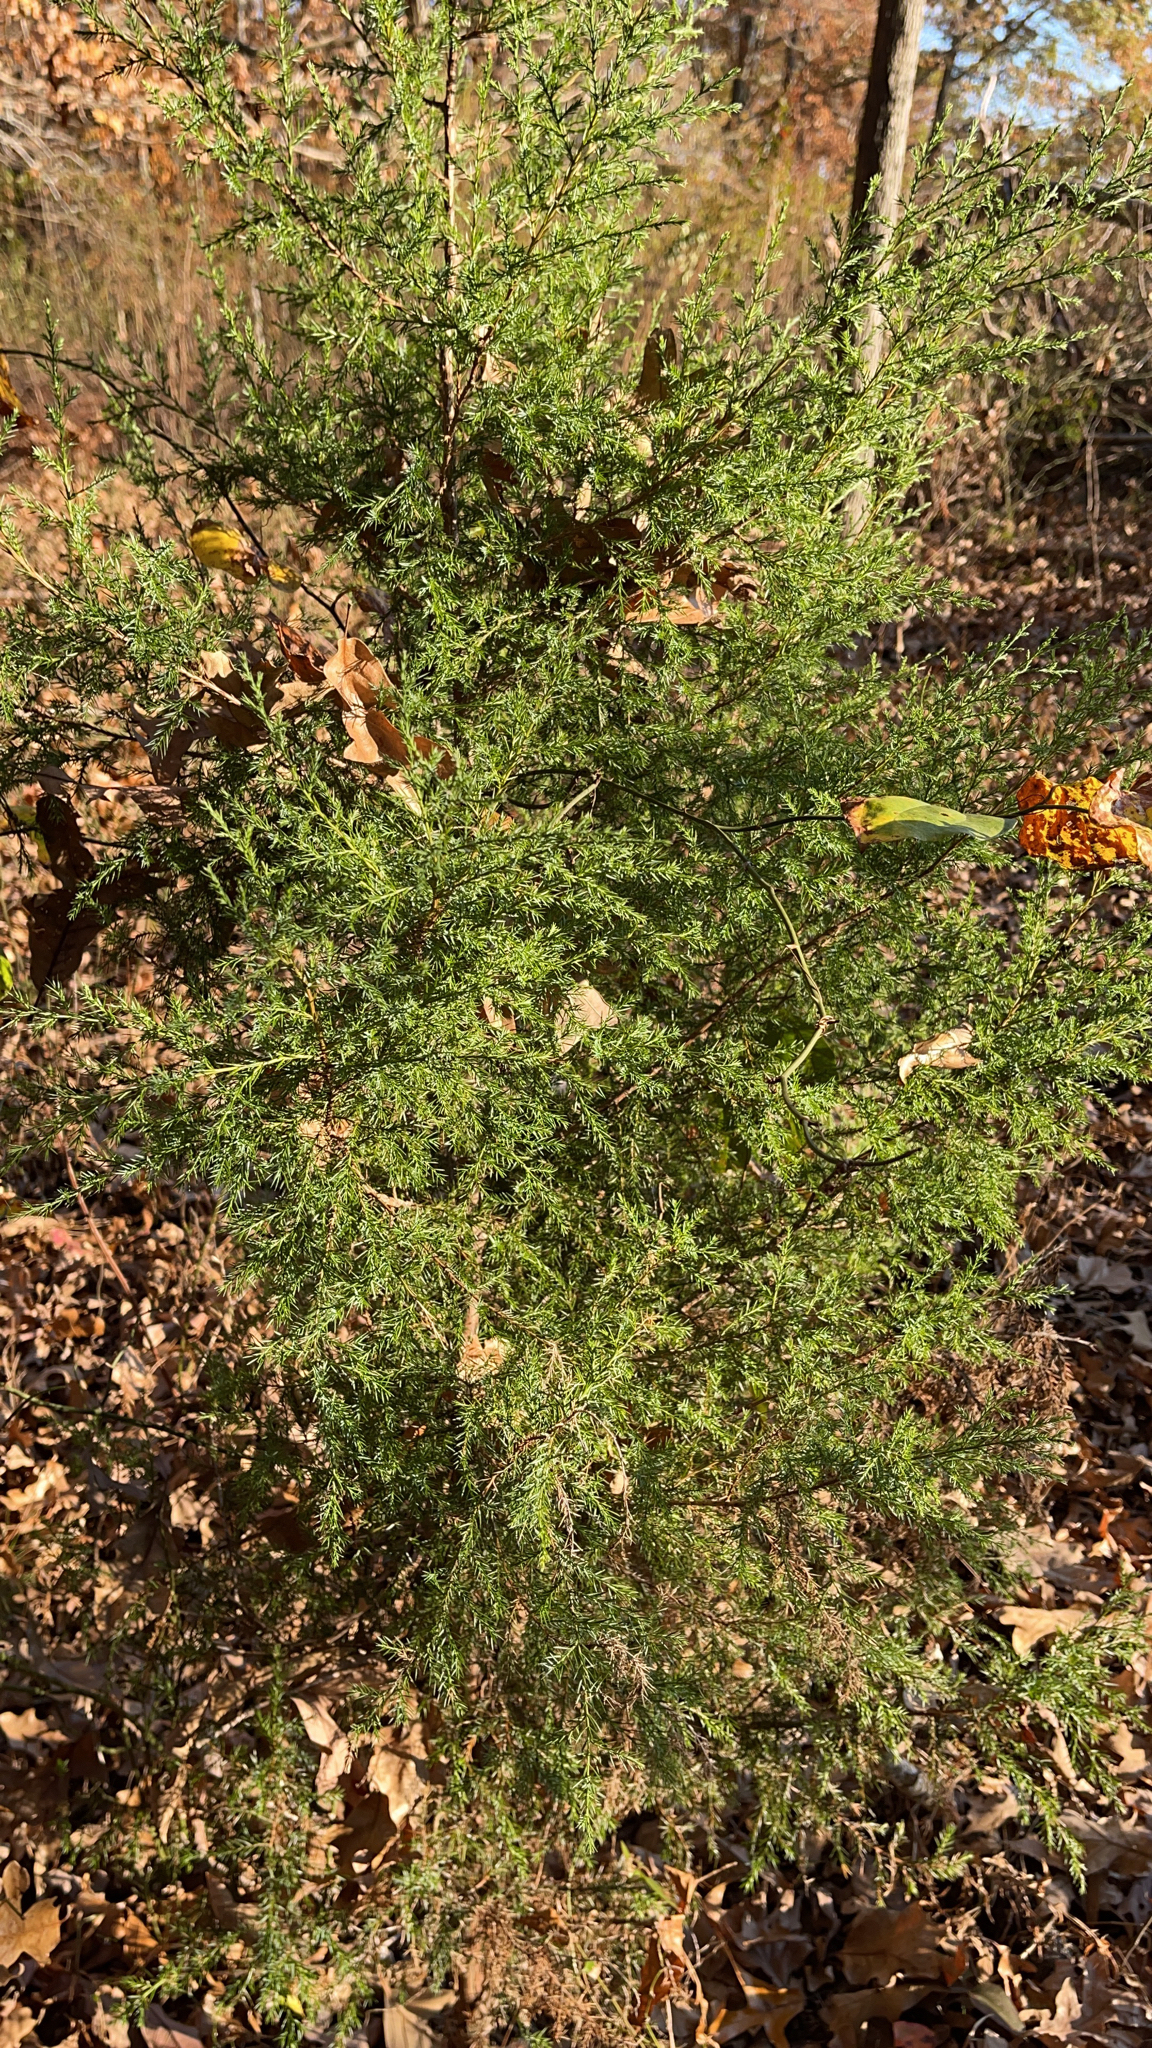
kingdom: Plantae
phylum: Tracheophyta
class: Pinopsida
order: Pinales
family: Cupressaceae
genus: Juniperus
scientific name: Juniperus virginiana
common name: Red juniper
